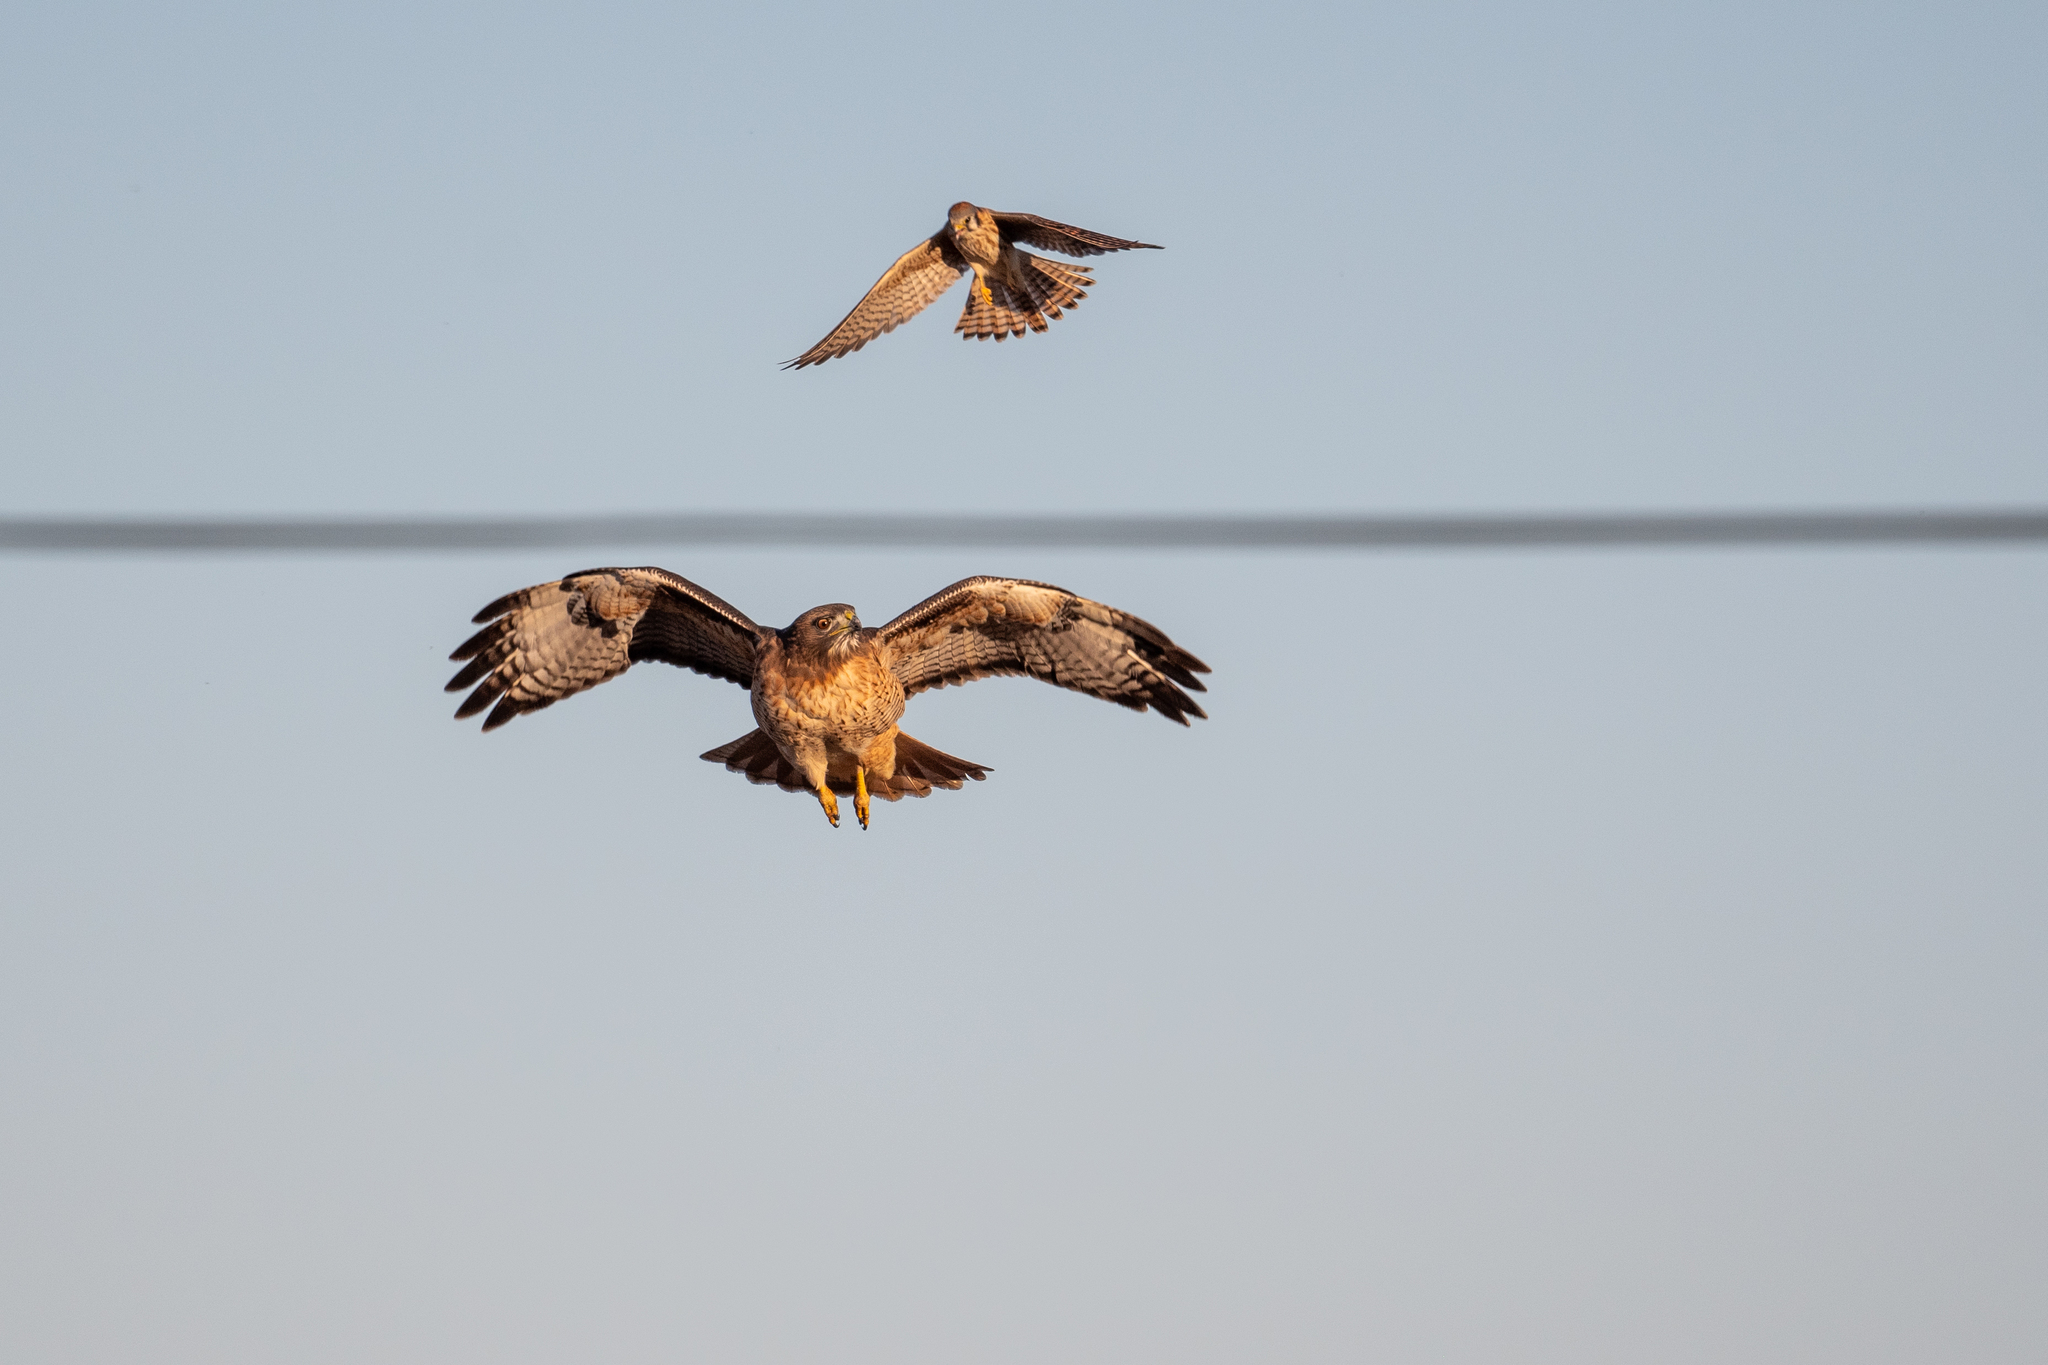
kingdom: Animalia
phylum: Chordata
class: Aves
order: Accipitriformes
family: Accipitridae
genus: Buteo
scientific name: Buteo jamaicensis
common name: Red-tailed hawk
